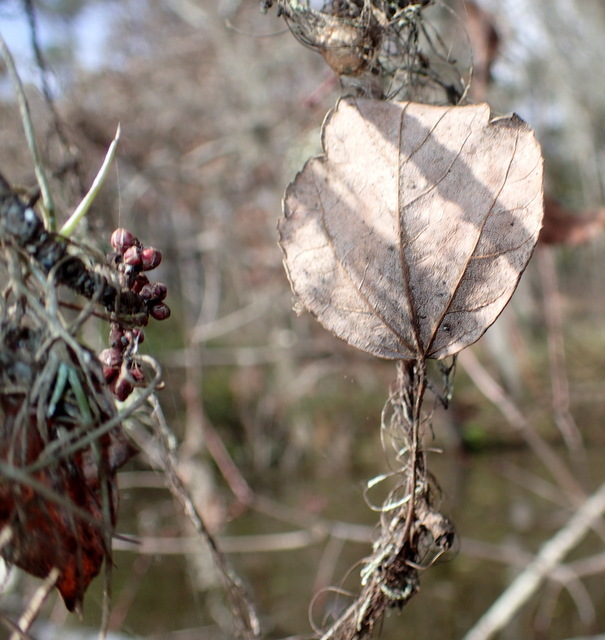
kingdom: Plantae
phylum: Tracheophyta
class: Magnoliopsida
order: Sapindales
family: Sapindaceae
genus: Acer
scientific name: Acer rubrum
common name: Red maple
